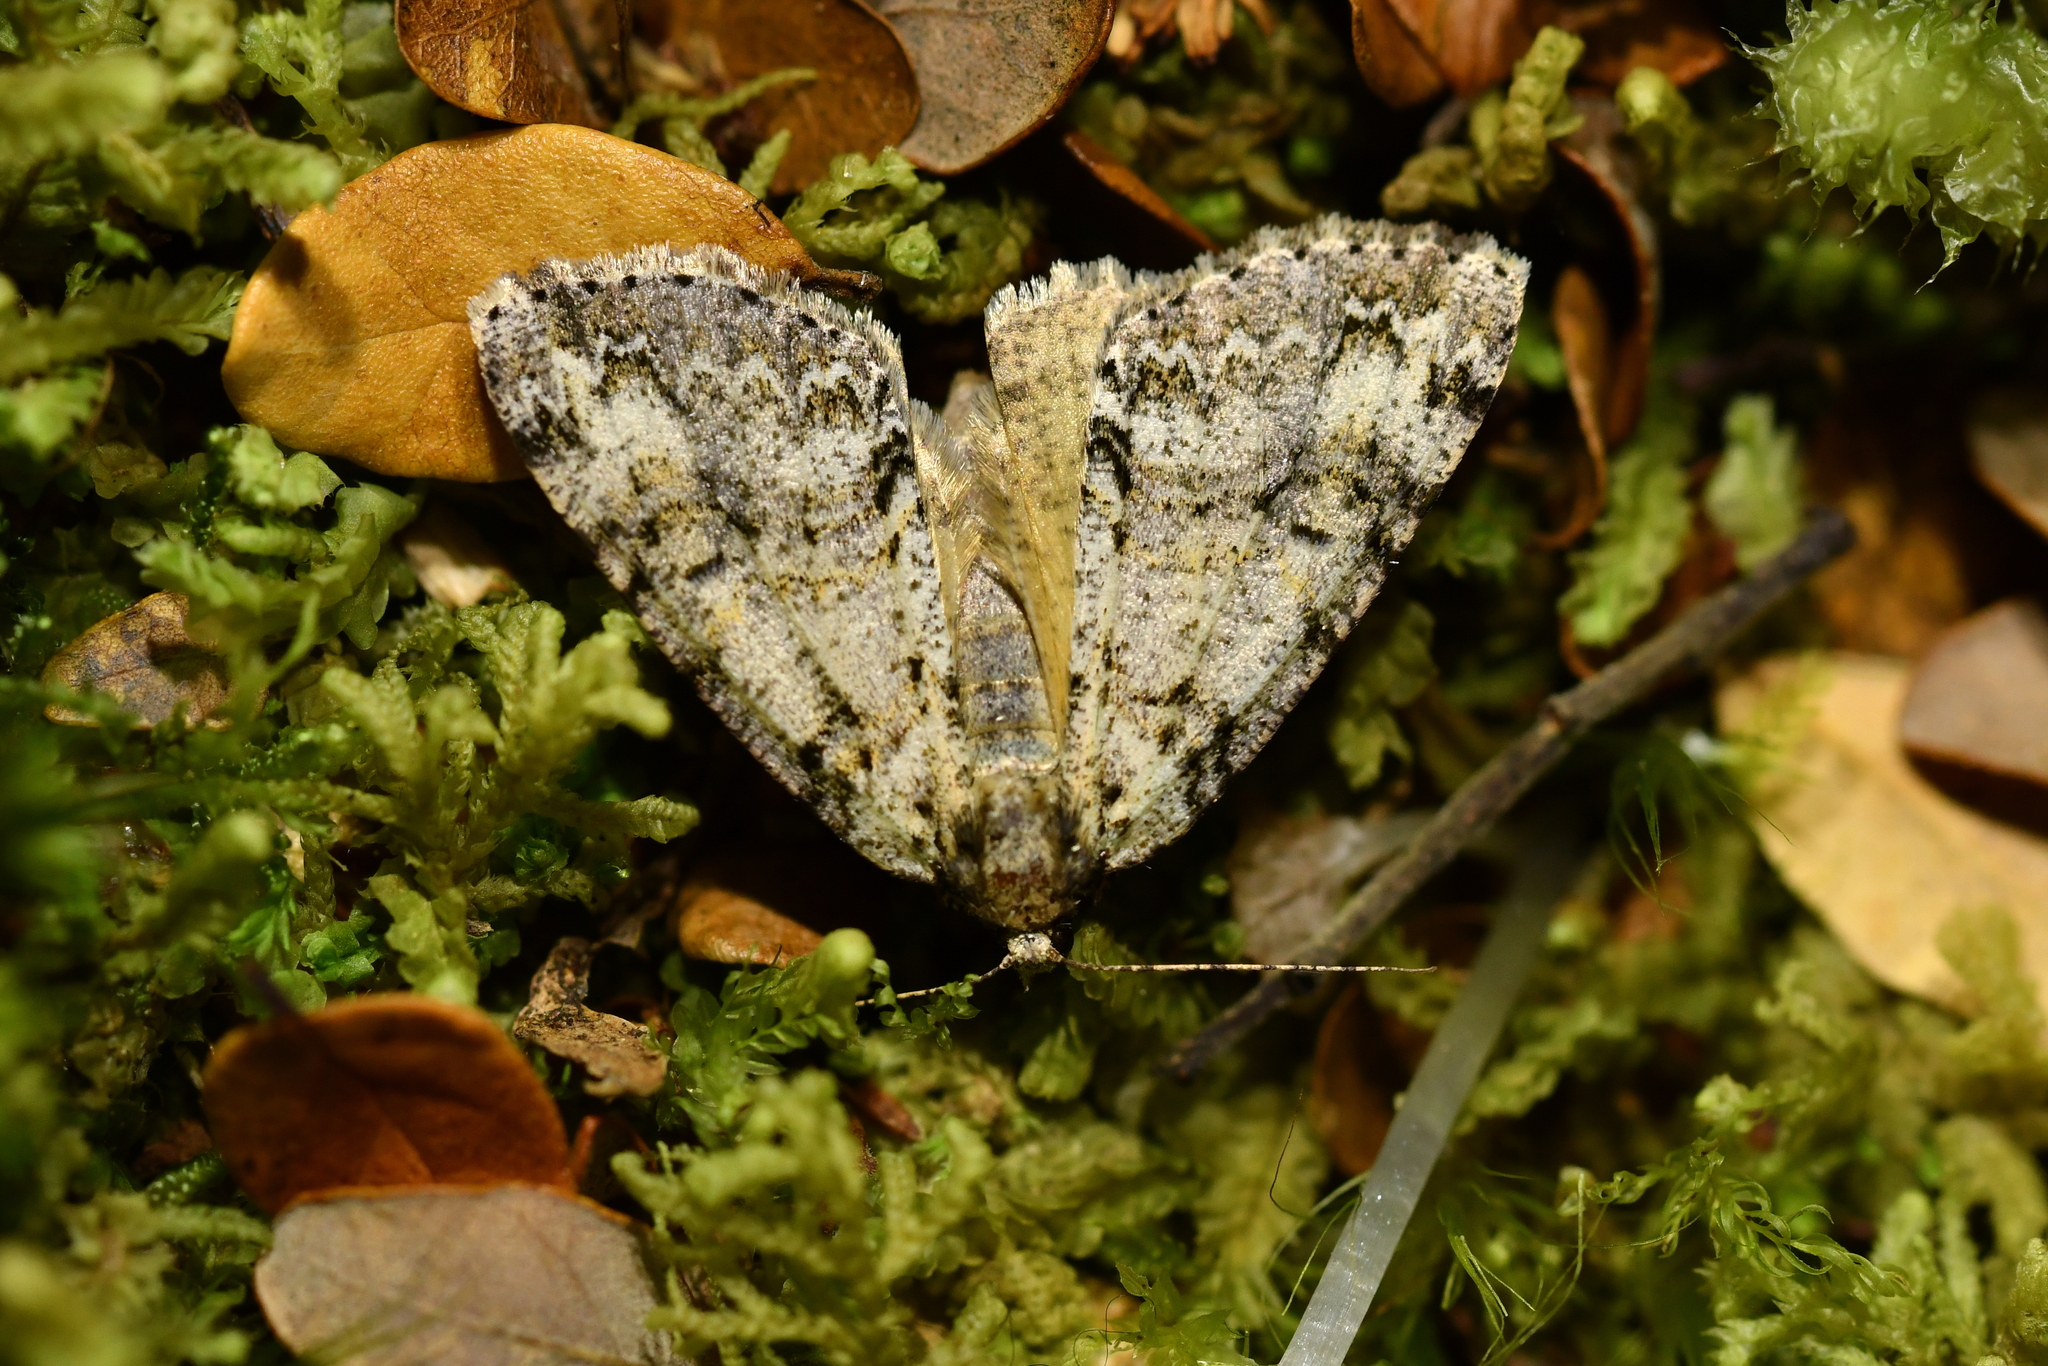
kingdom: Animalia
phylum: Arthropoda
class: Insecta
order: Lepidoptera
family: Geometridae
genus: Pseudocoremia
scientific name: Pseudocoremia suavis
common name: Common forest looper
